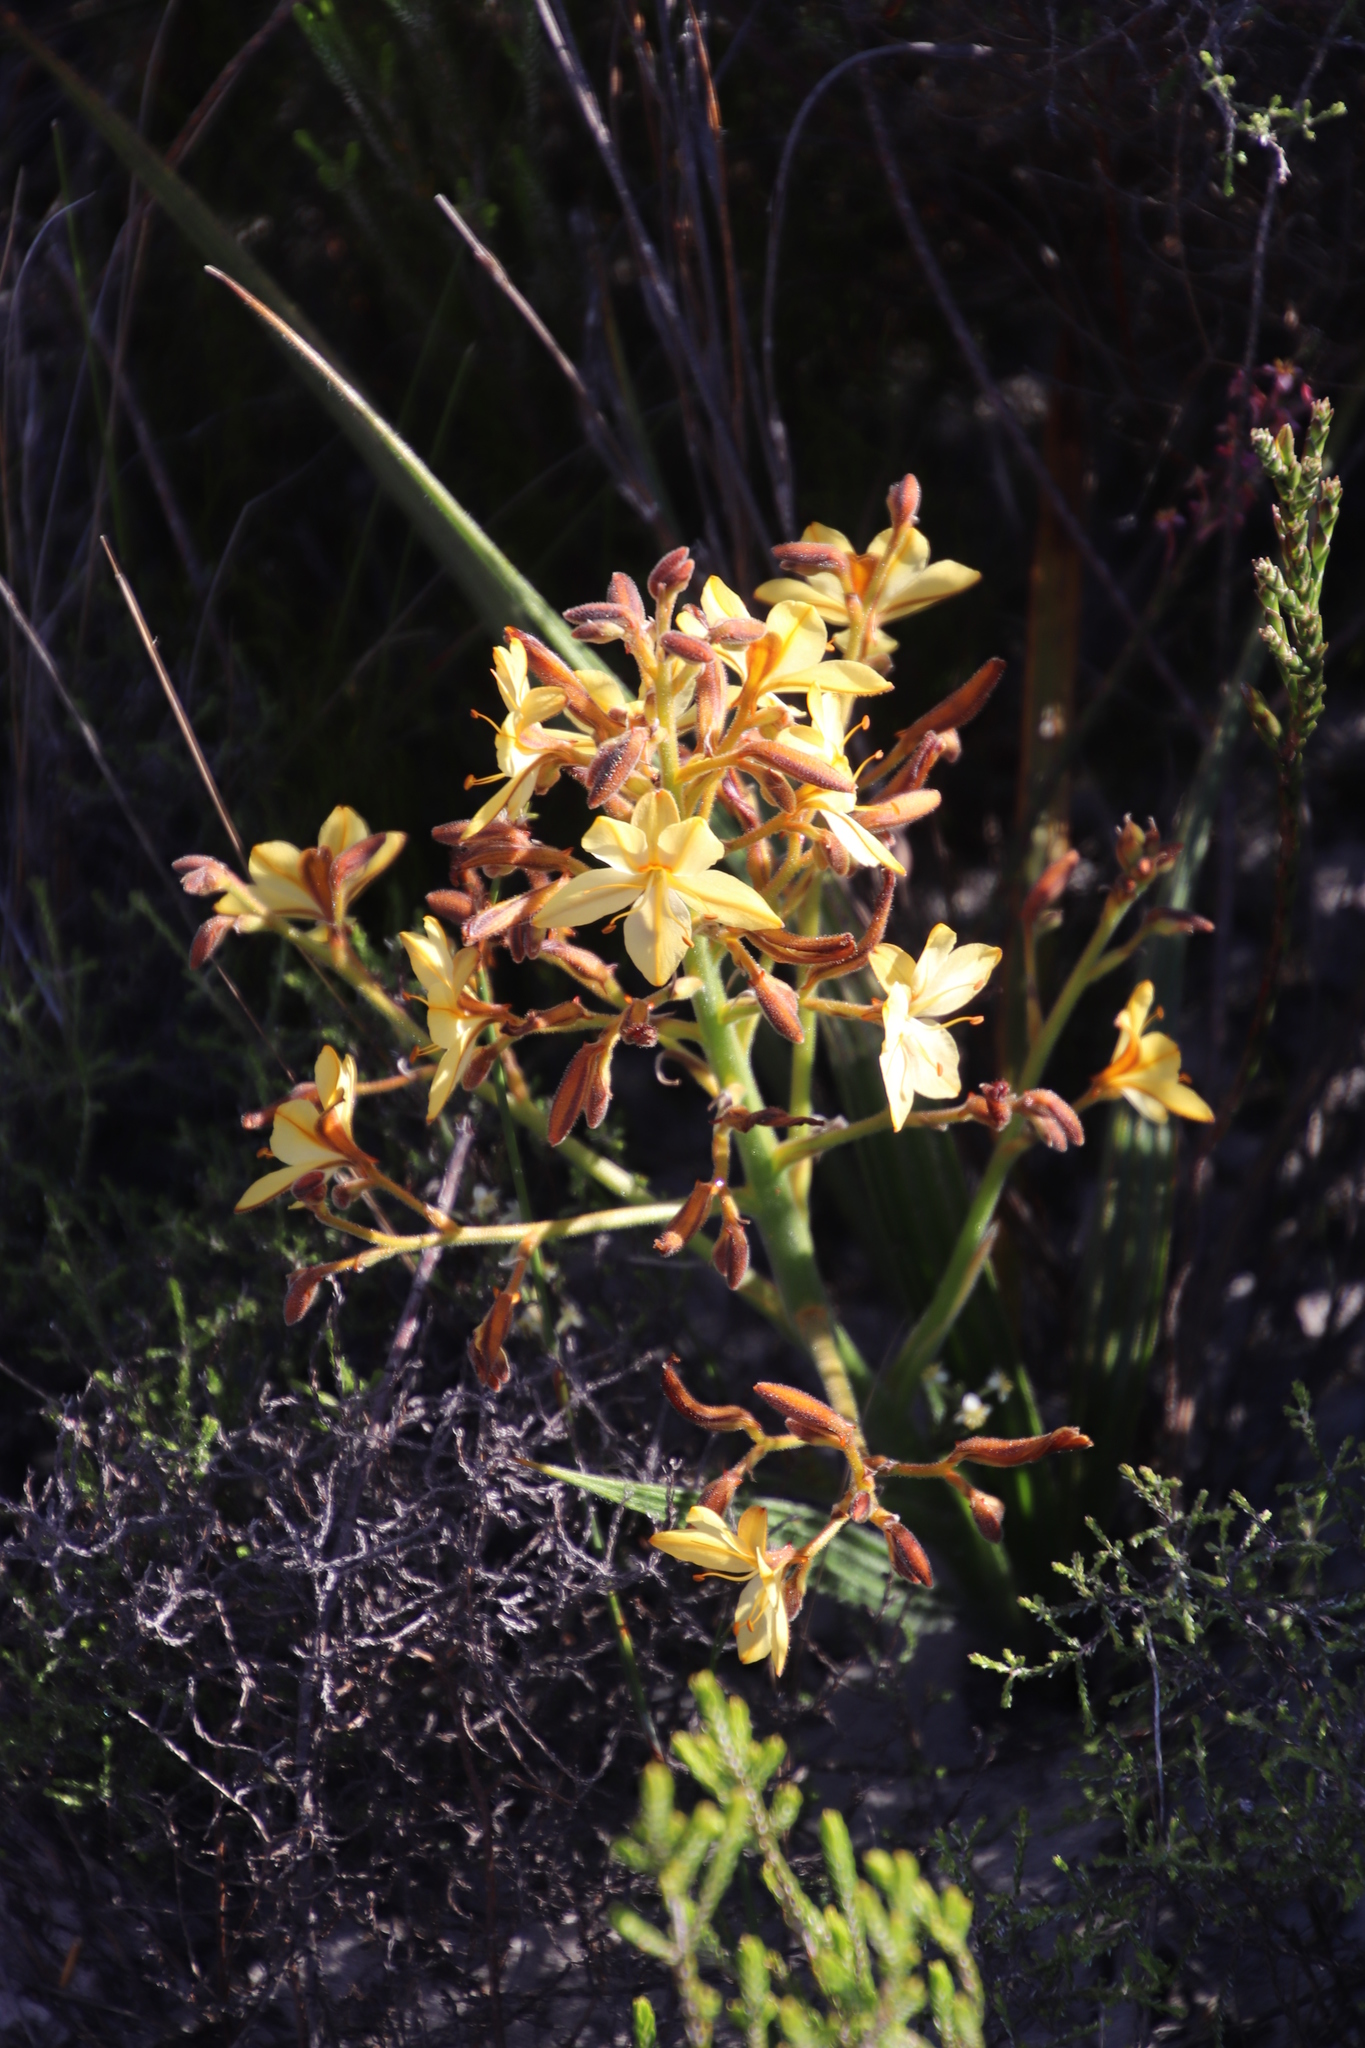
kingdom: Plantae
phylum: Tracheophyta
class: Liliopsida
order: Commelinales
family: Haemodoraceae
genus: Wachendorfia
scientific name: Wachendorfia paniculata
